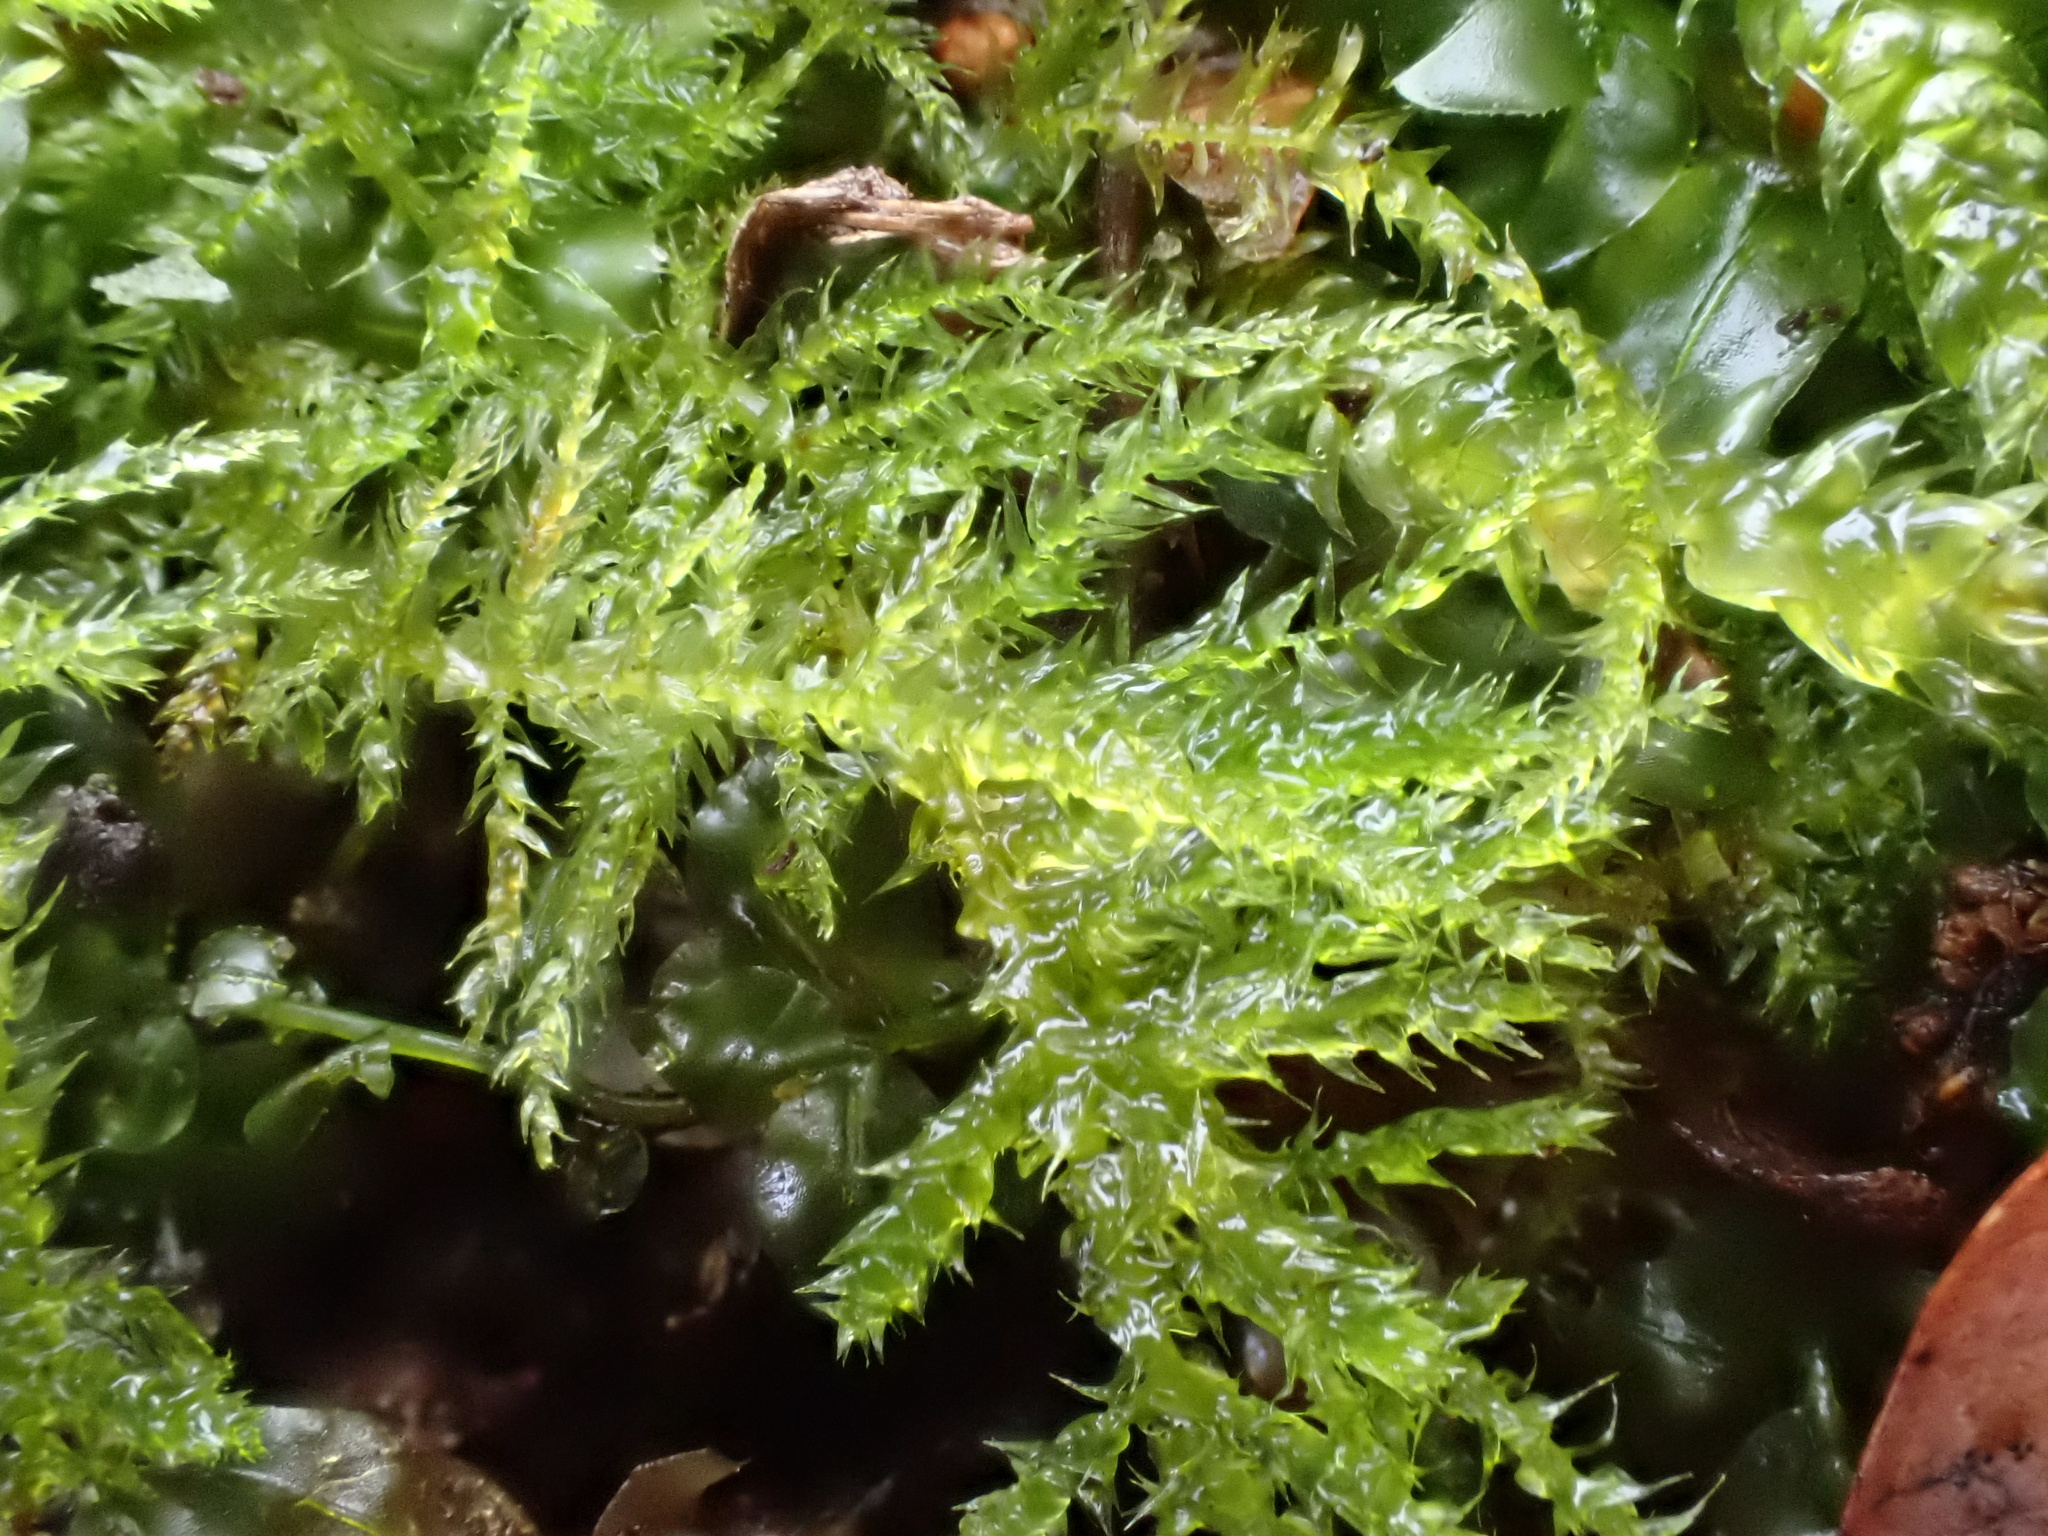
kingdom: Plantae
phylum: Bryophyta
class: Bryopsida
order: Hypnales
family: Brachytheciaceae
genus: Kindbergia
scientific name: Kindbergia praelonga
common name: Slender beaked moss
